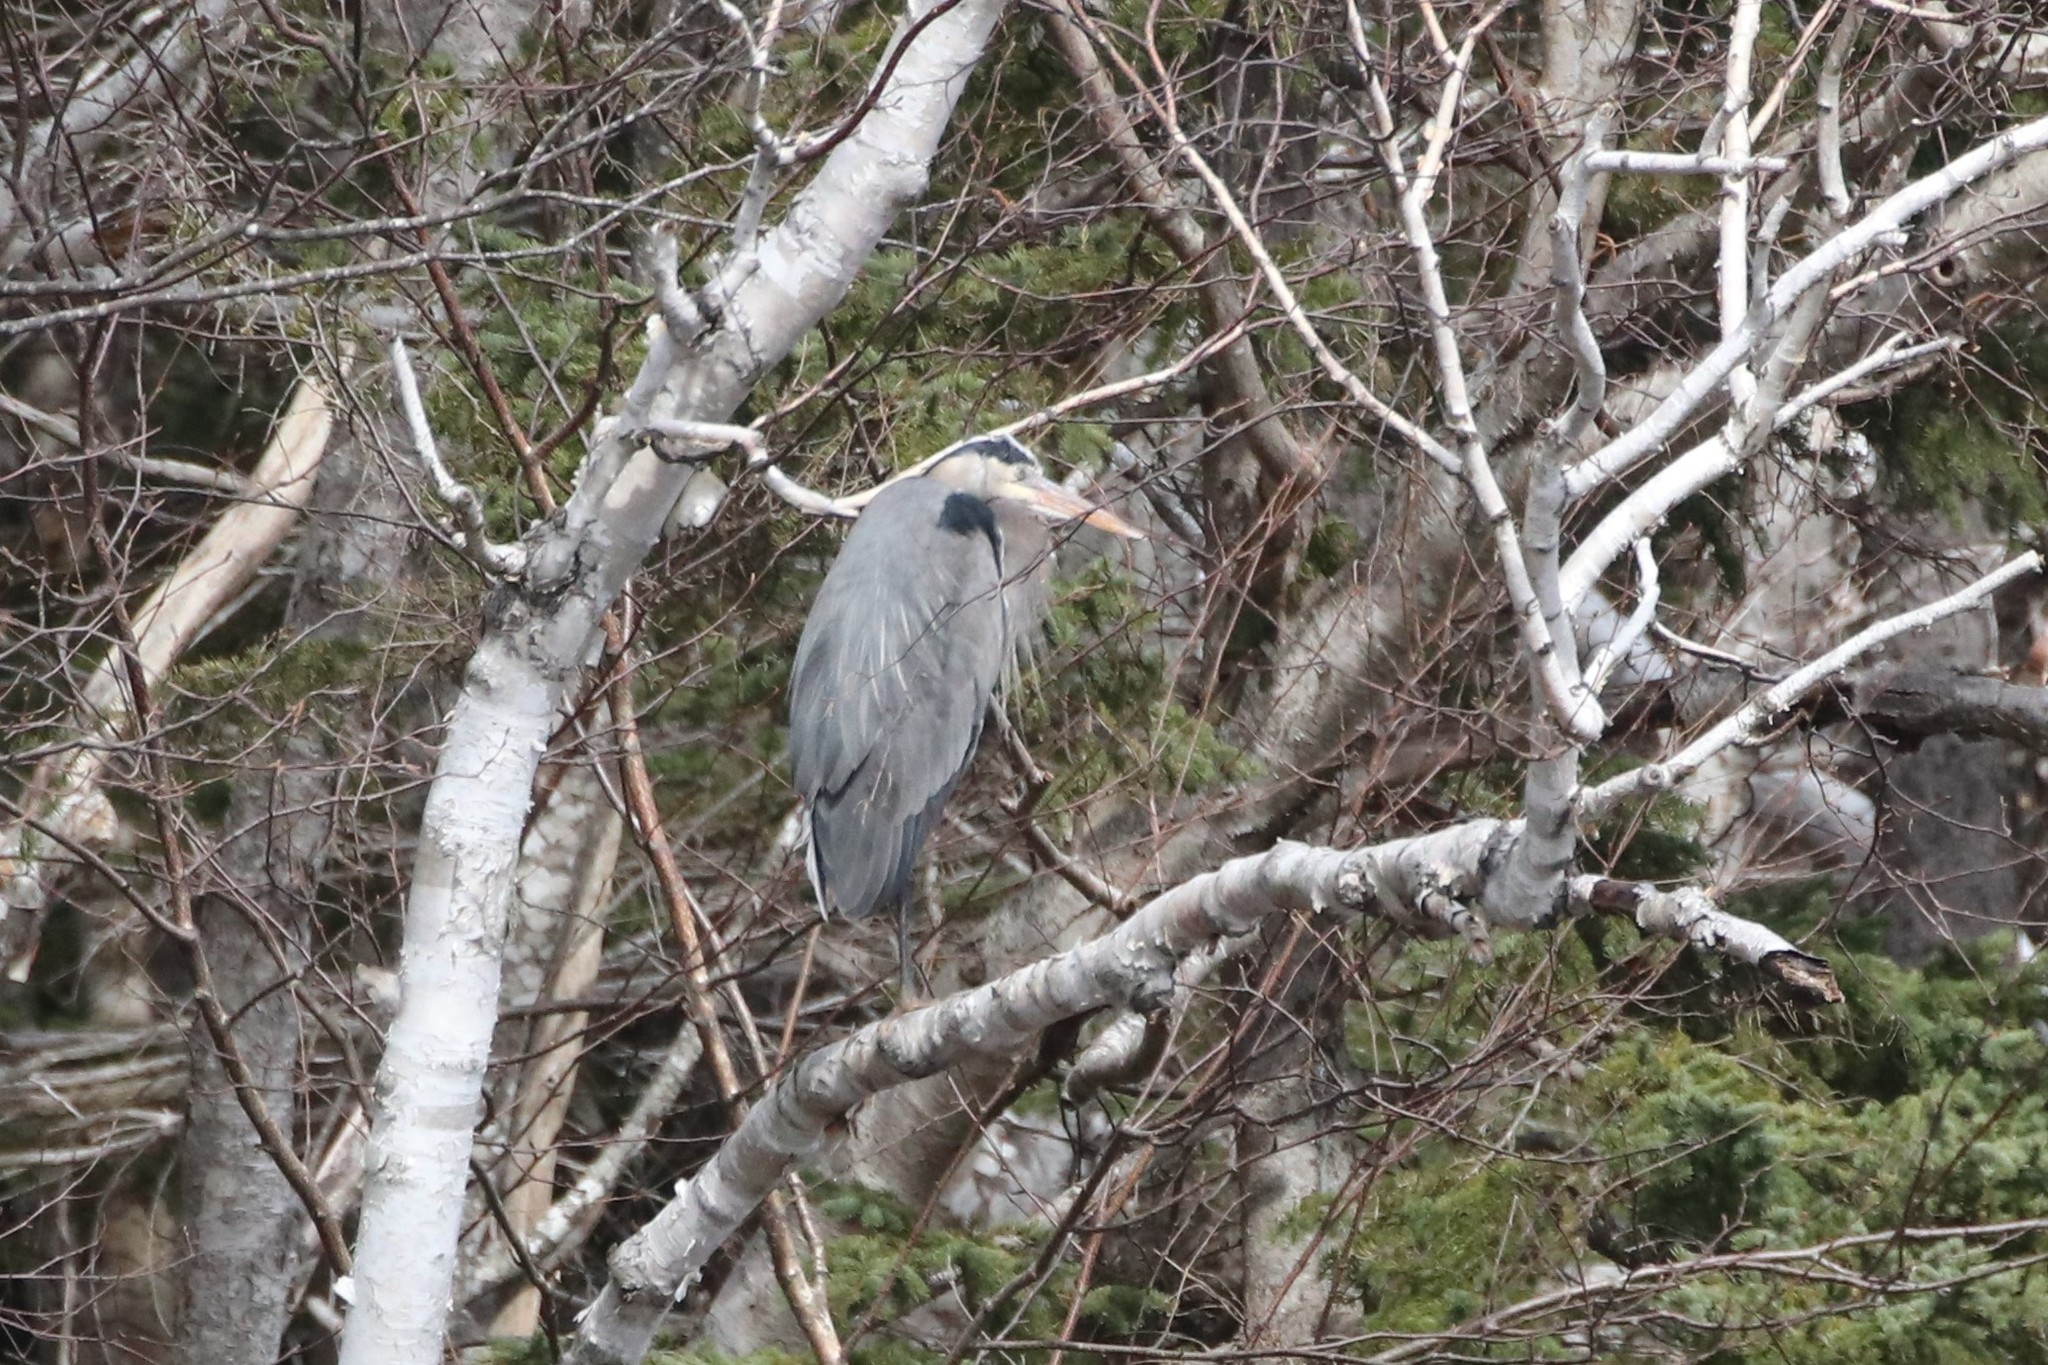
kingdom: Animalia
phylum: Chordata
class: Aves
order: Pelecaniformes
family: Ardeidae
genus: Ardea
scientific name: Ardea herodias
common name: Great blue heron
